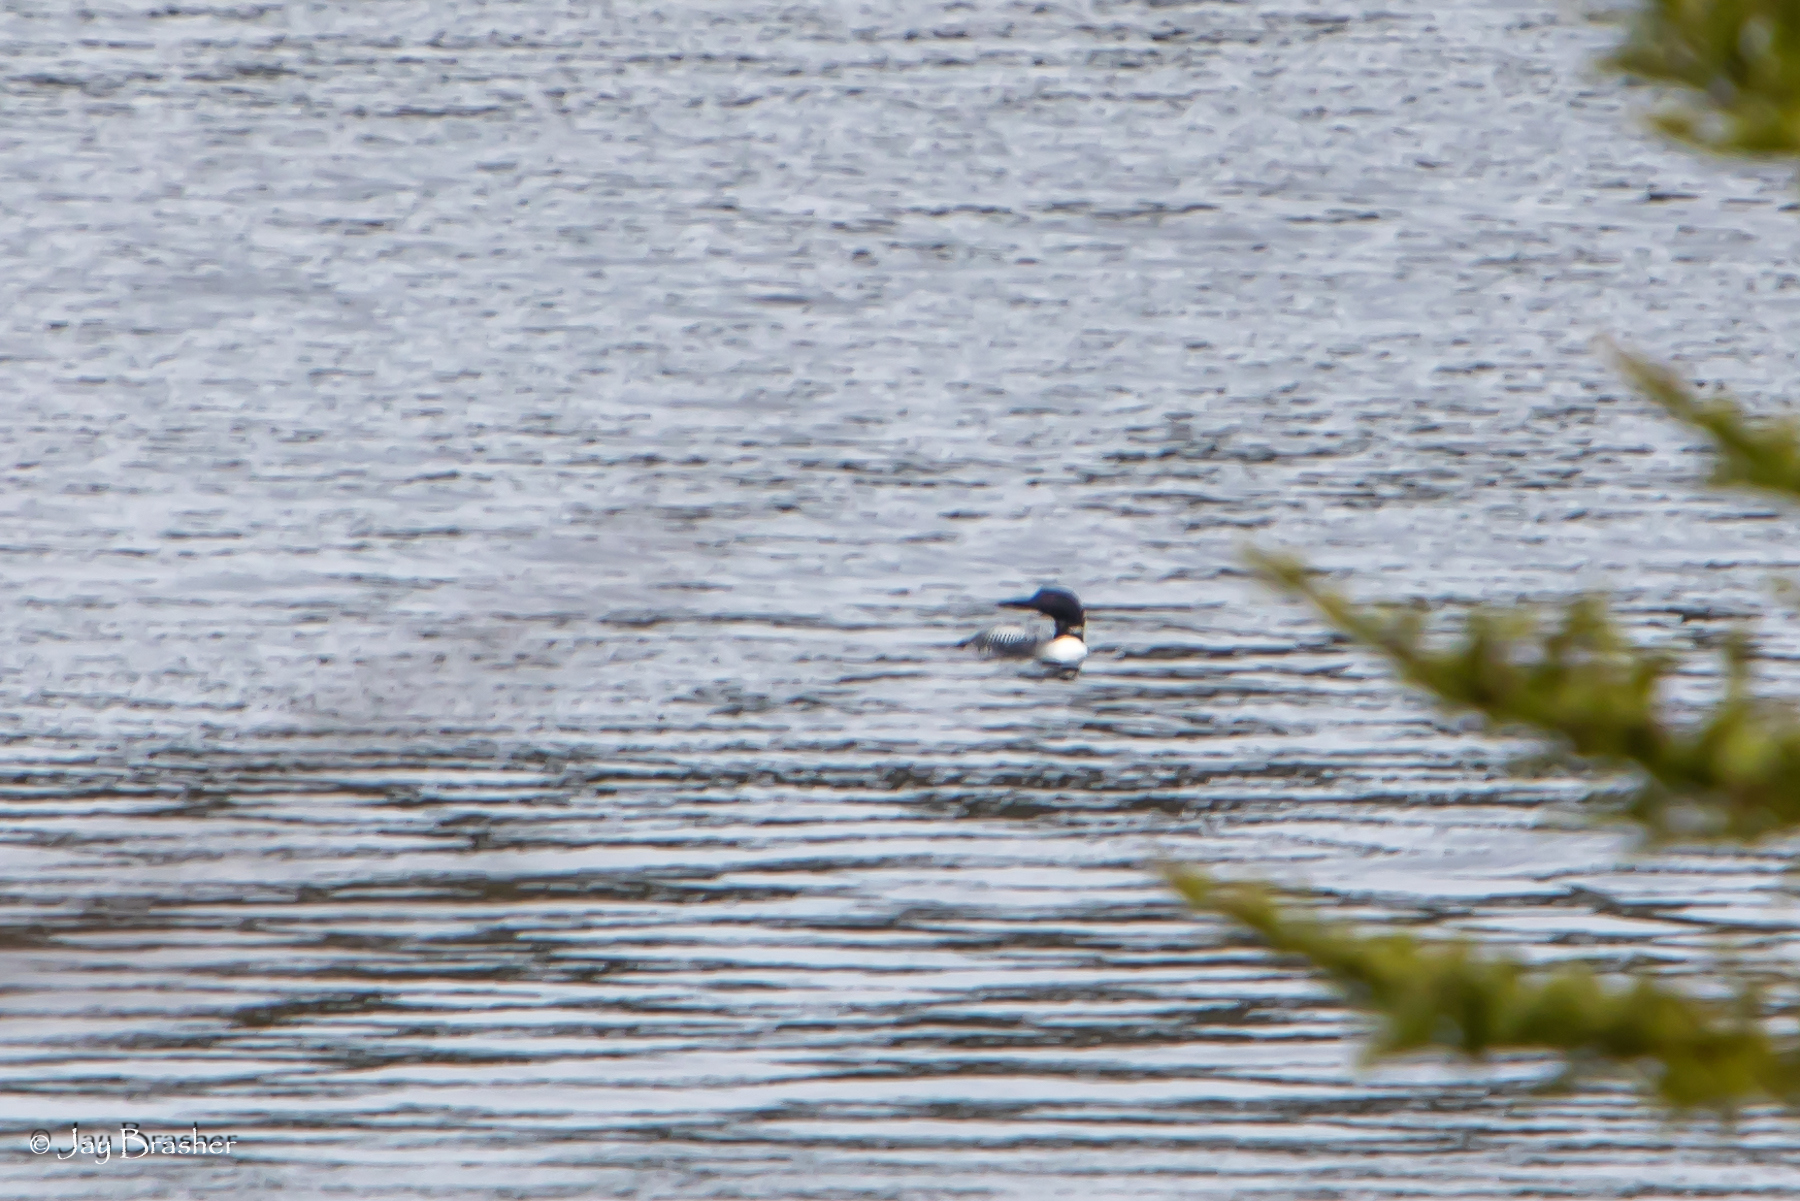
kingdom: Animalia
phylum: Chordata
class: Aves
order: Gaviiformes
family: Gaviidae
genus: Gavia
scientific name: Gavia immer
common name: Common loon
